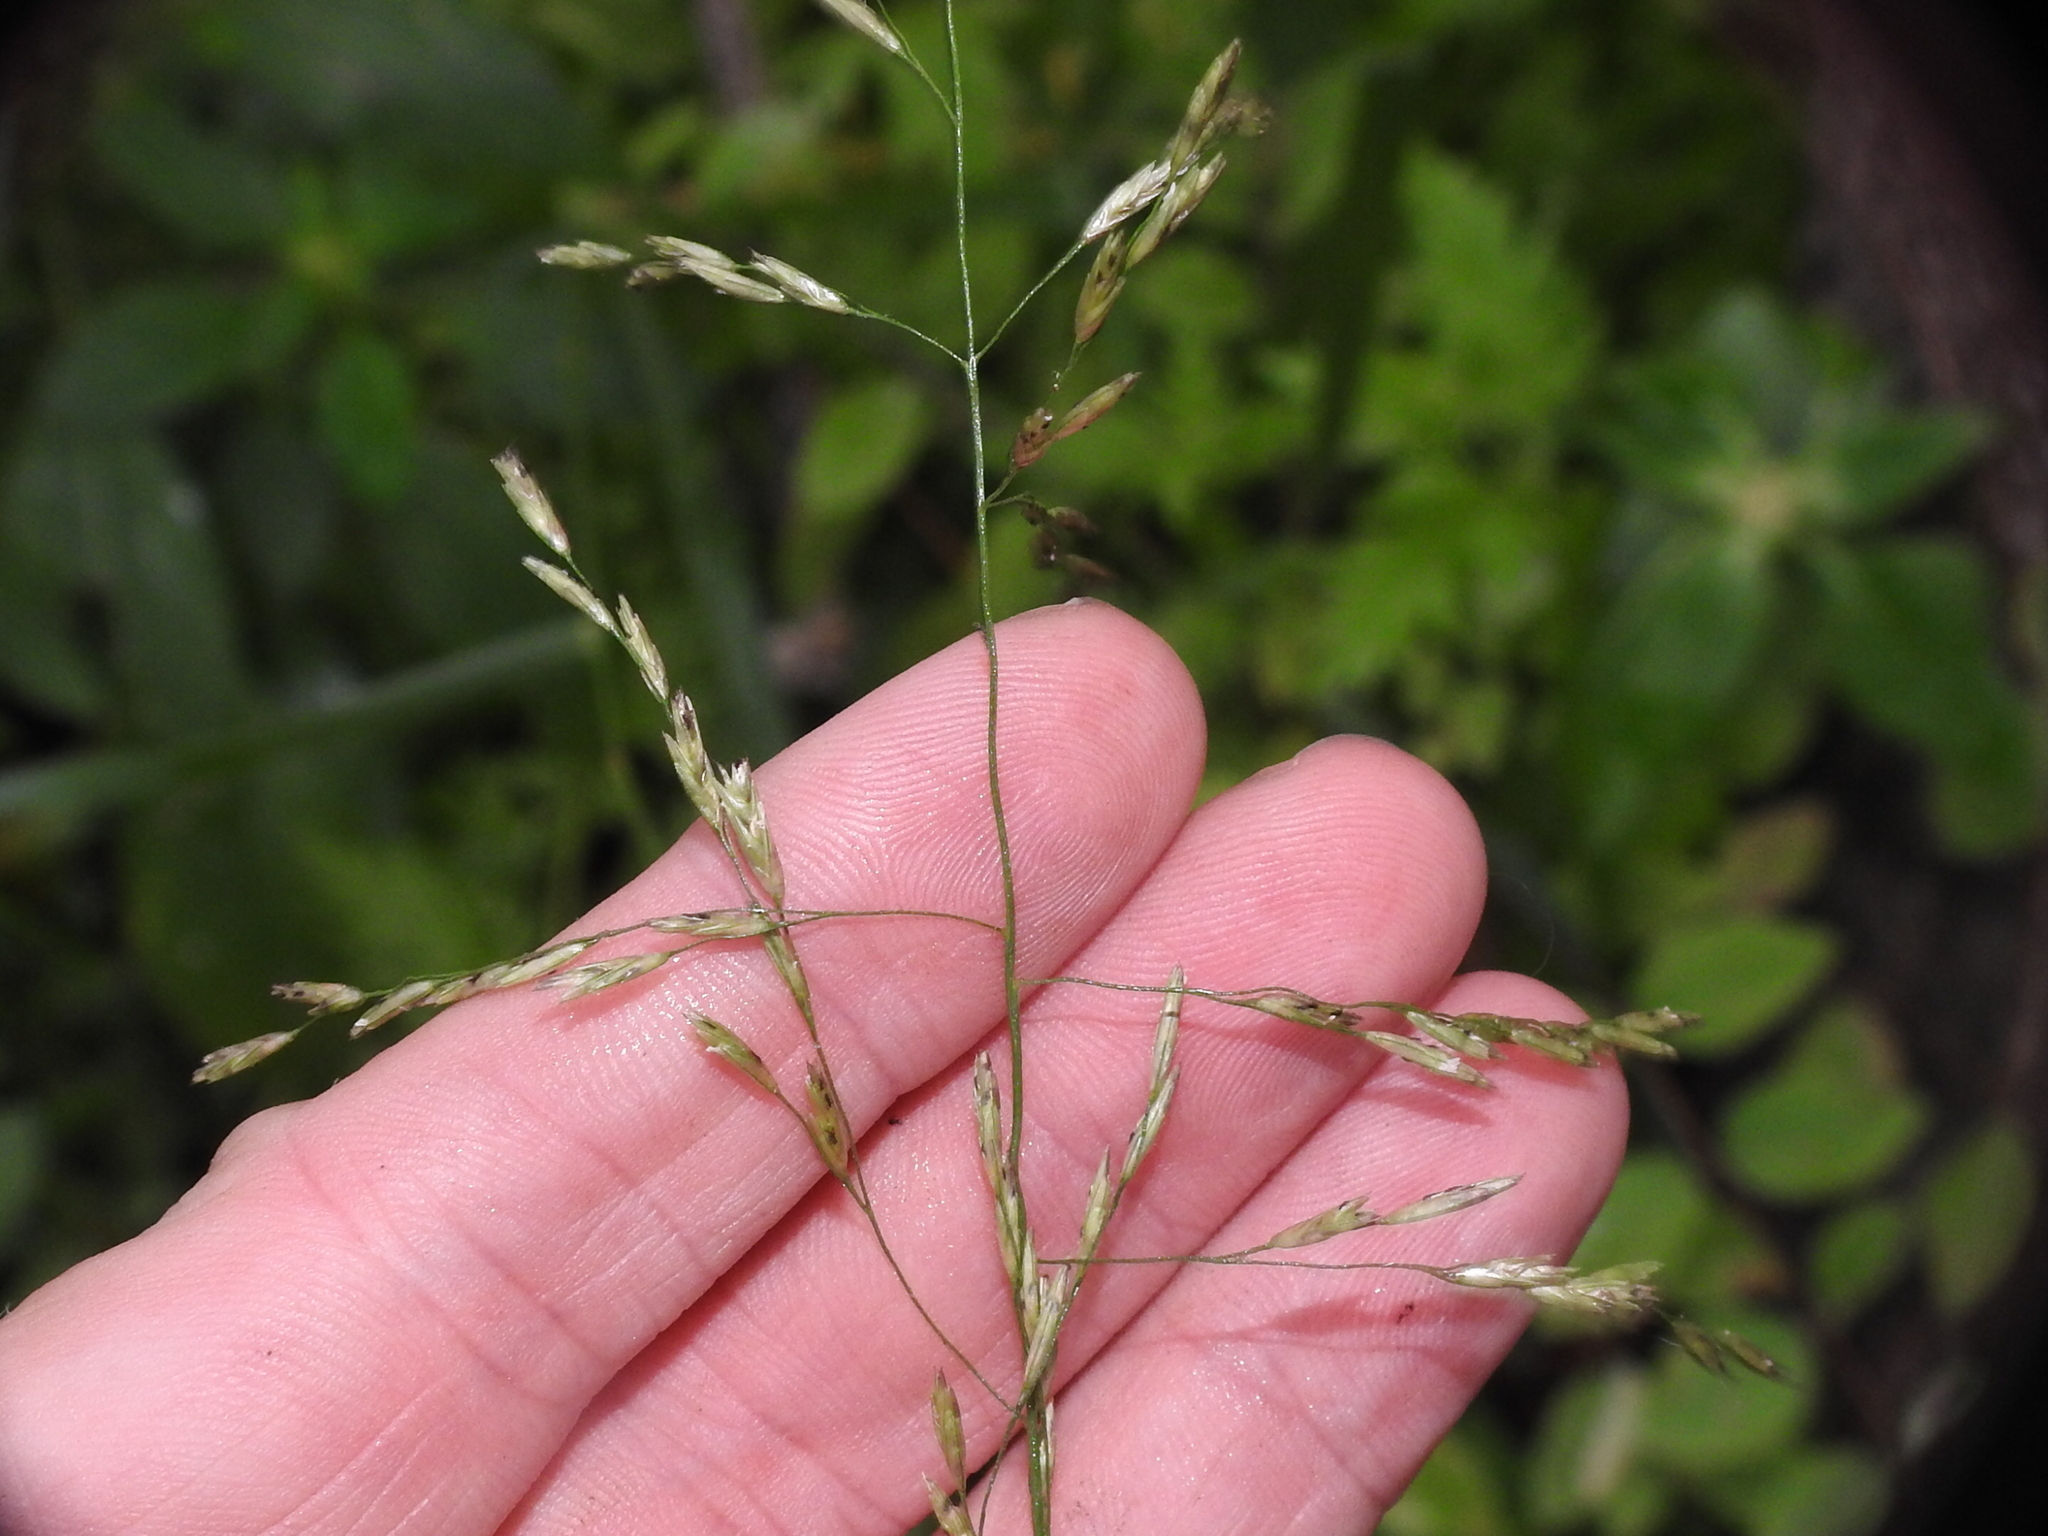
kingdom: Plantae
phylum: Tracheophyta
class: Liliopsida
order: Poales
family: Poaceae
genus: Tridens
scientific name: Tridens flavus
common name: Purpletop
